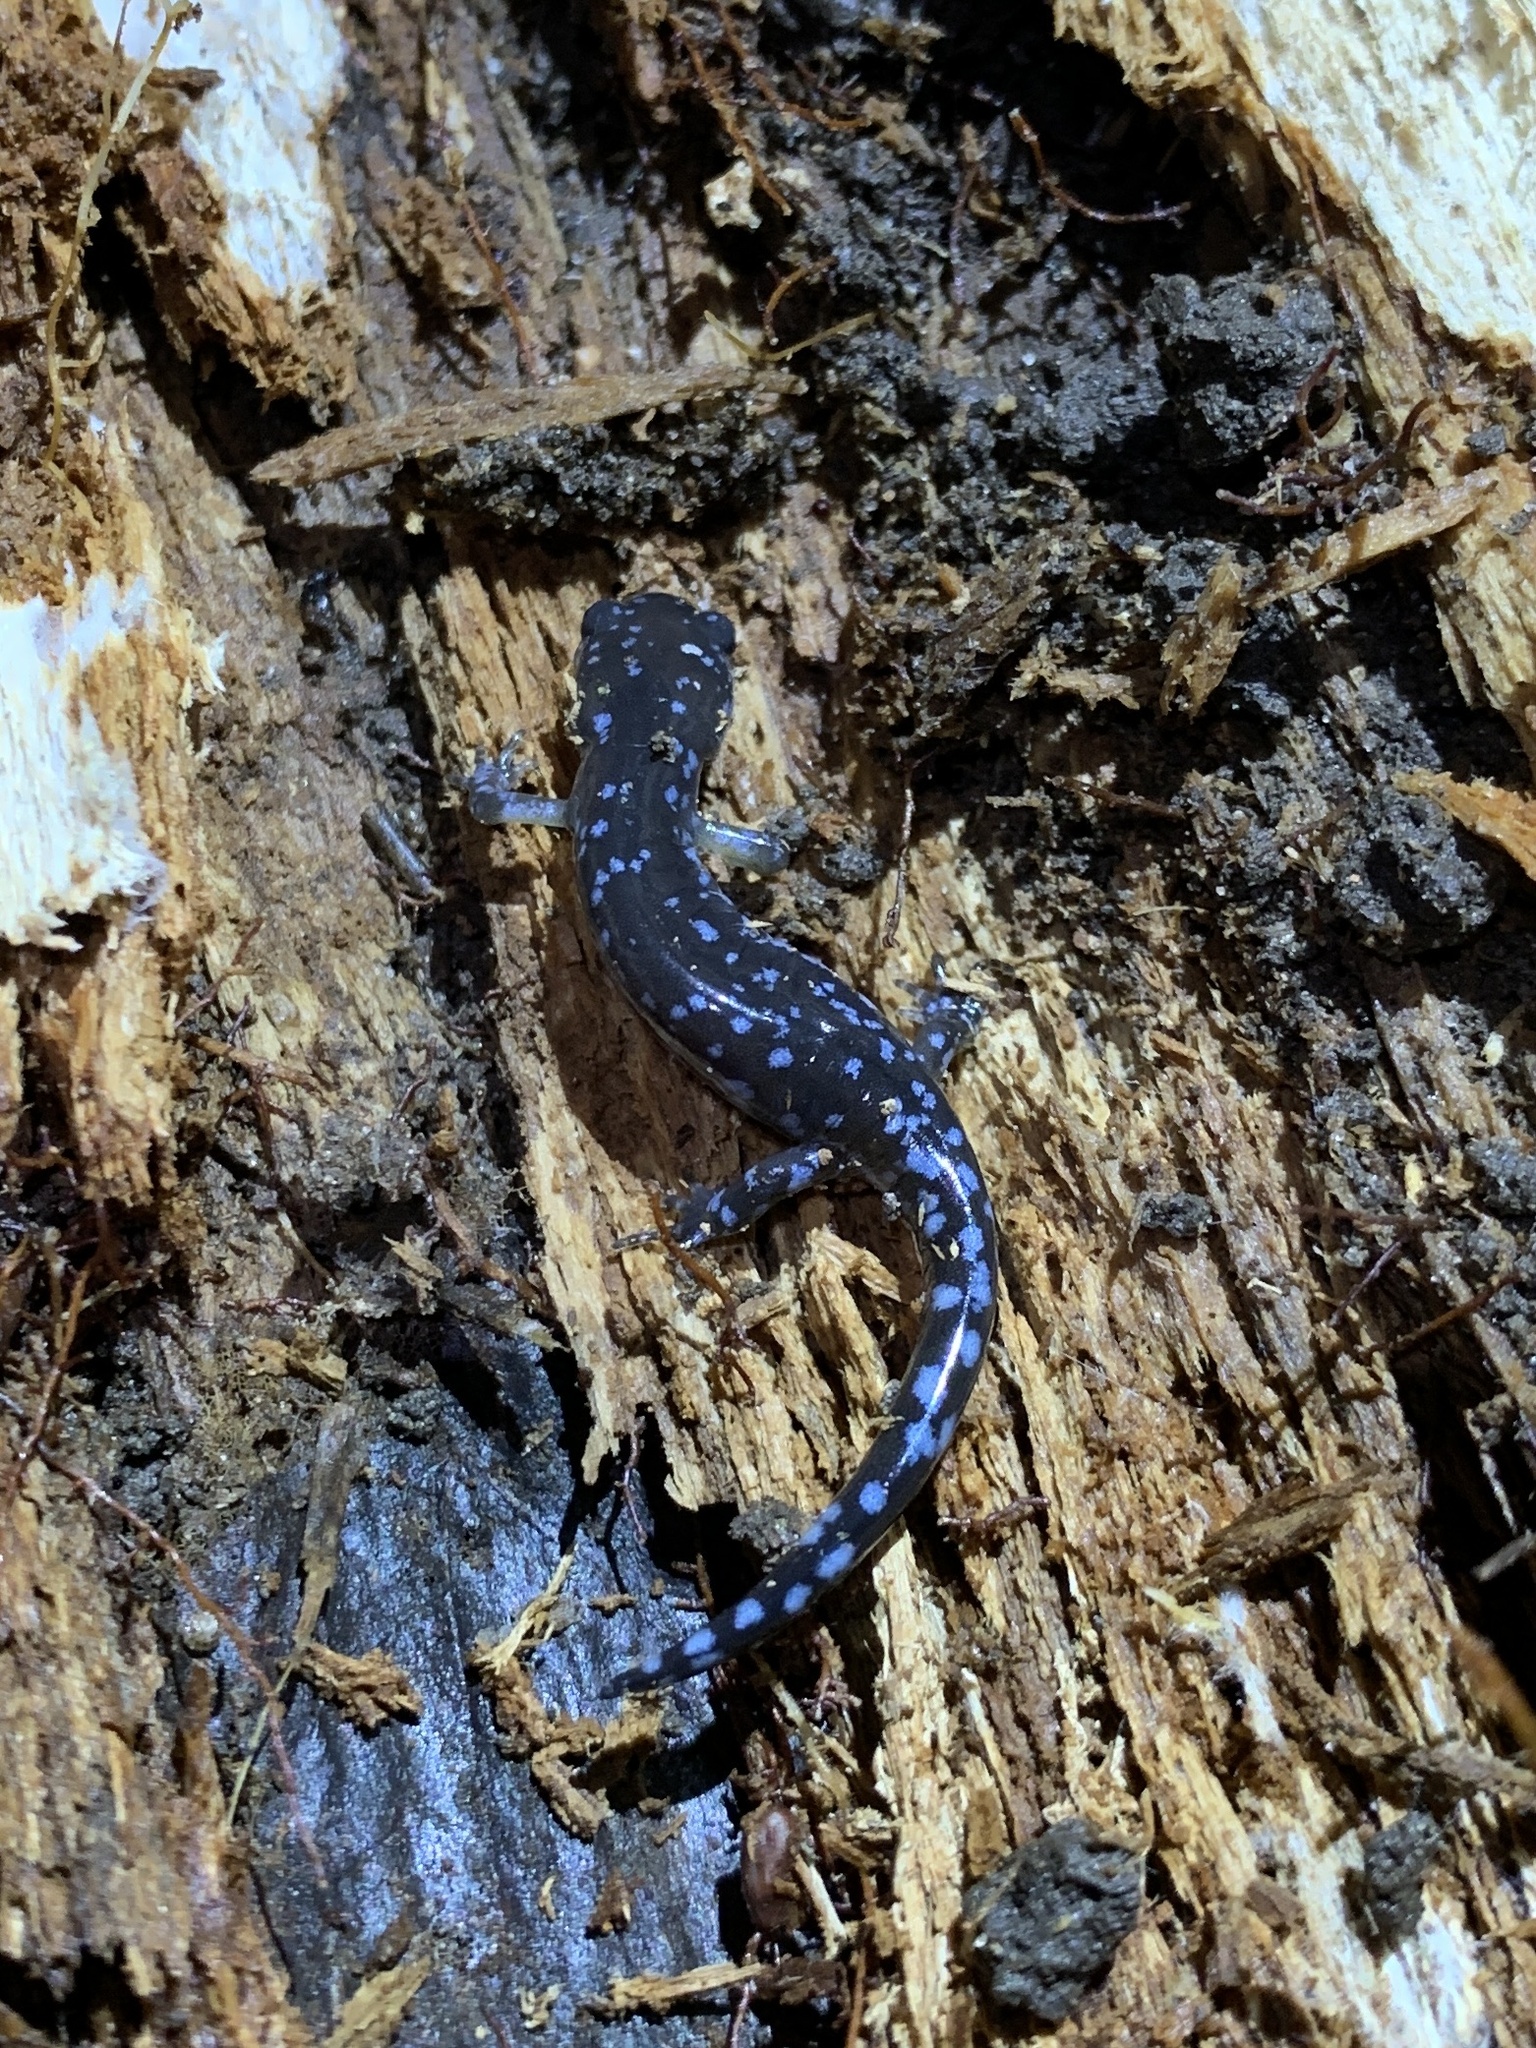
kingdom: Animalia
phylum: Chordata
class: Amphibia
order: Caudata
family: Ambystomatidae
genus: Ambystoma
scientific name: Ambystoma laterale
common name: Blue-spotted salamander
